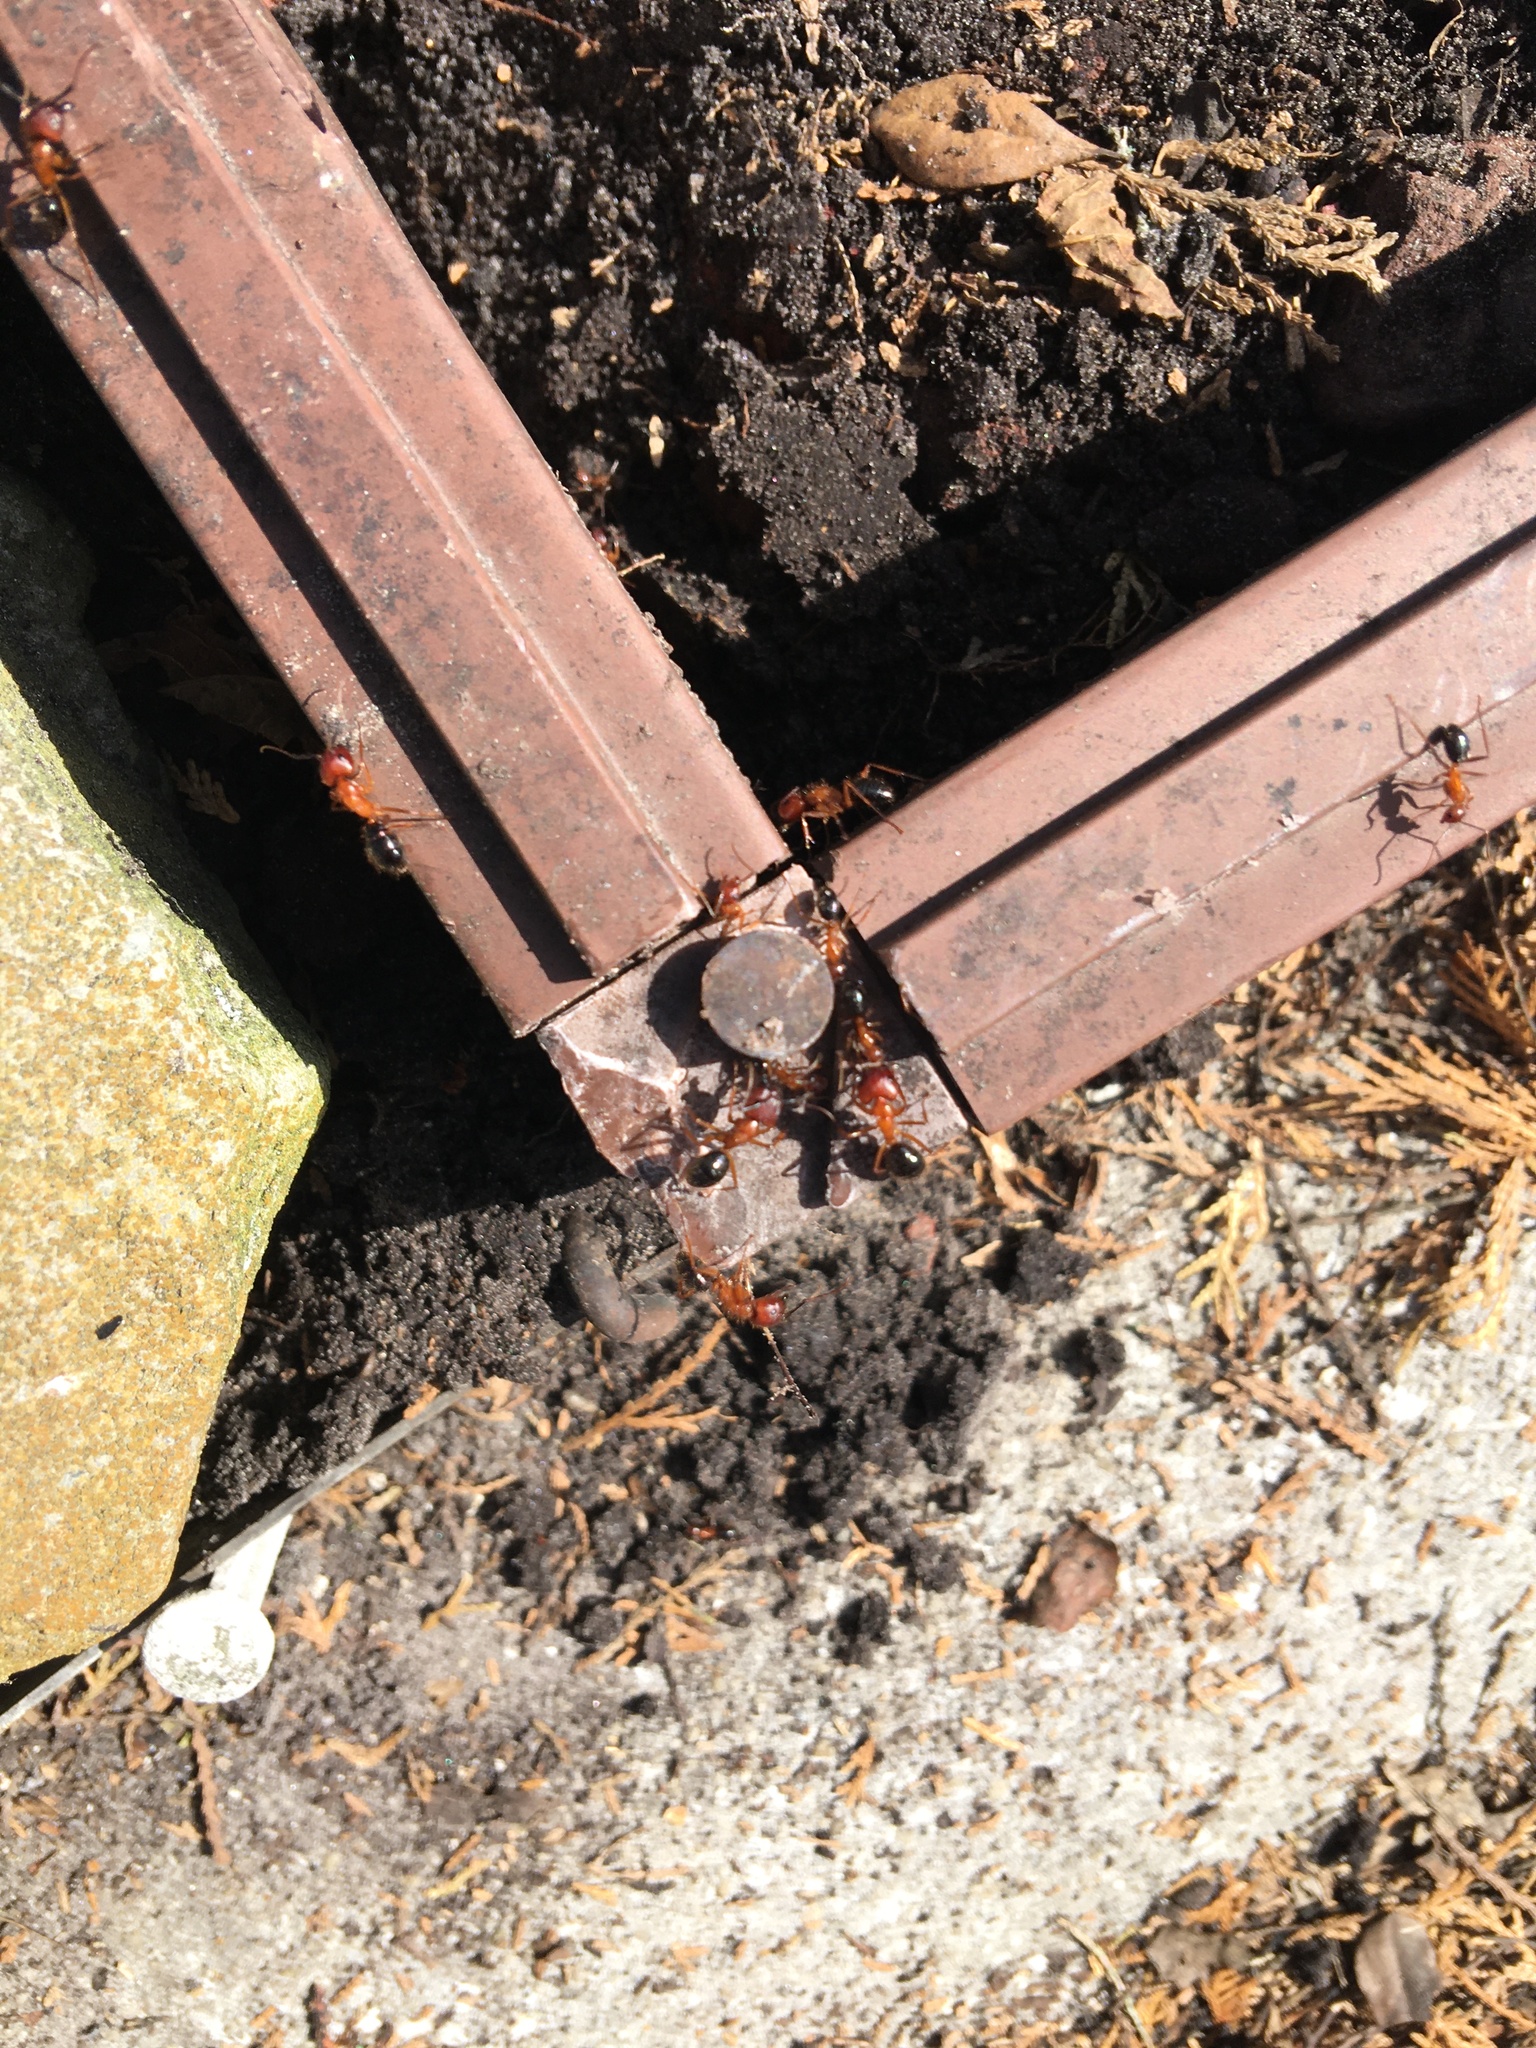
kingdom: Animalia
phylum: Arthropoda
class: Insecta
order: Hymenoptera
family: Formicidae
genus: Camponotus
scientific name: Camponotus floridanus
